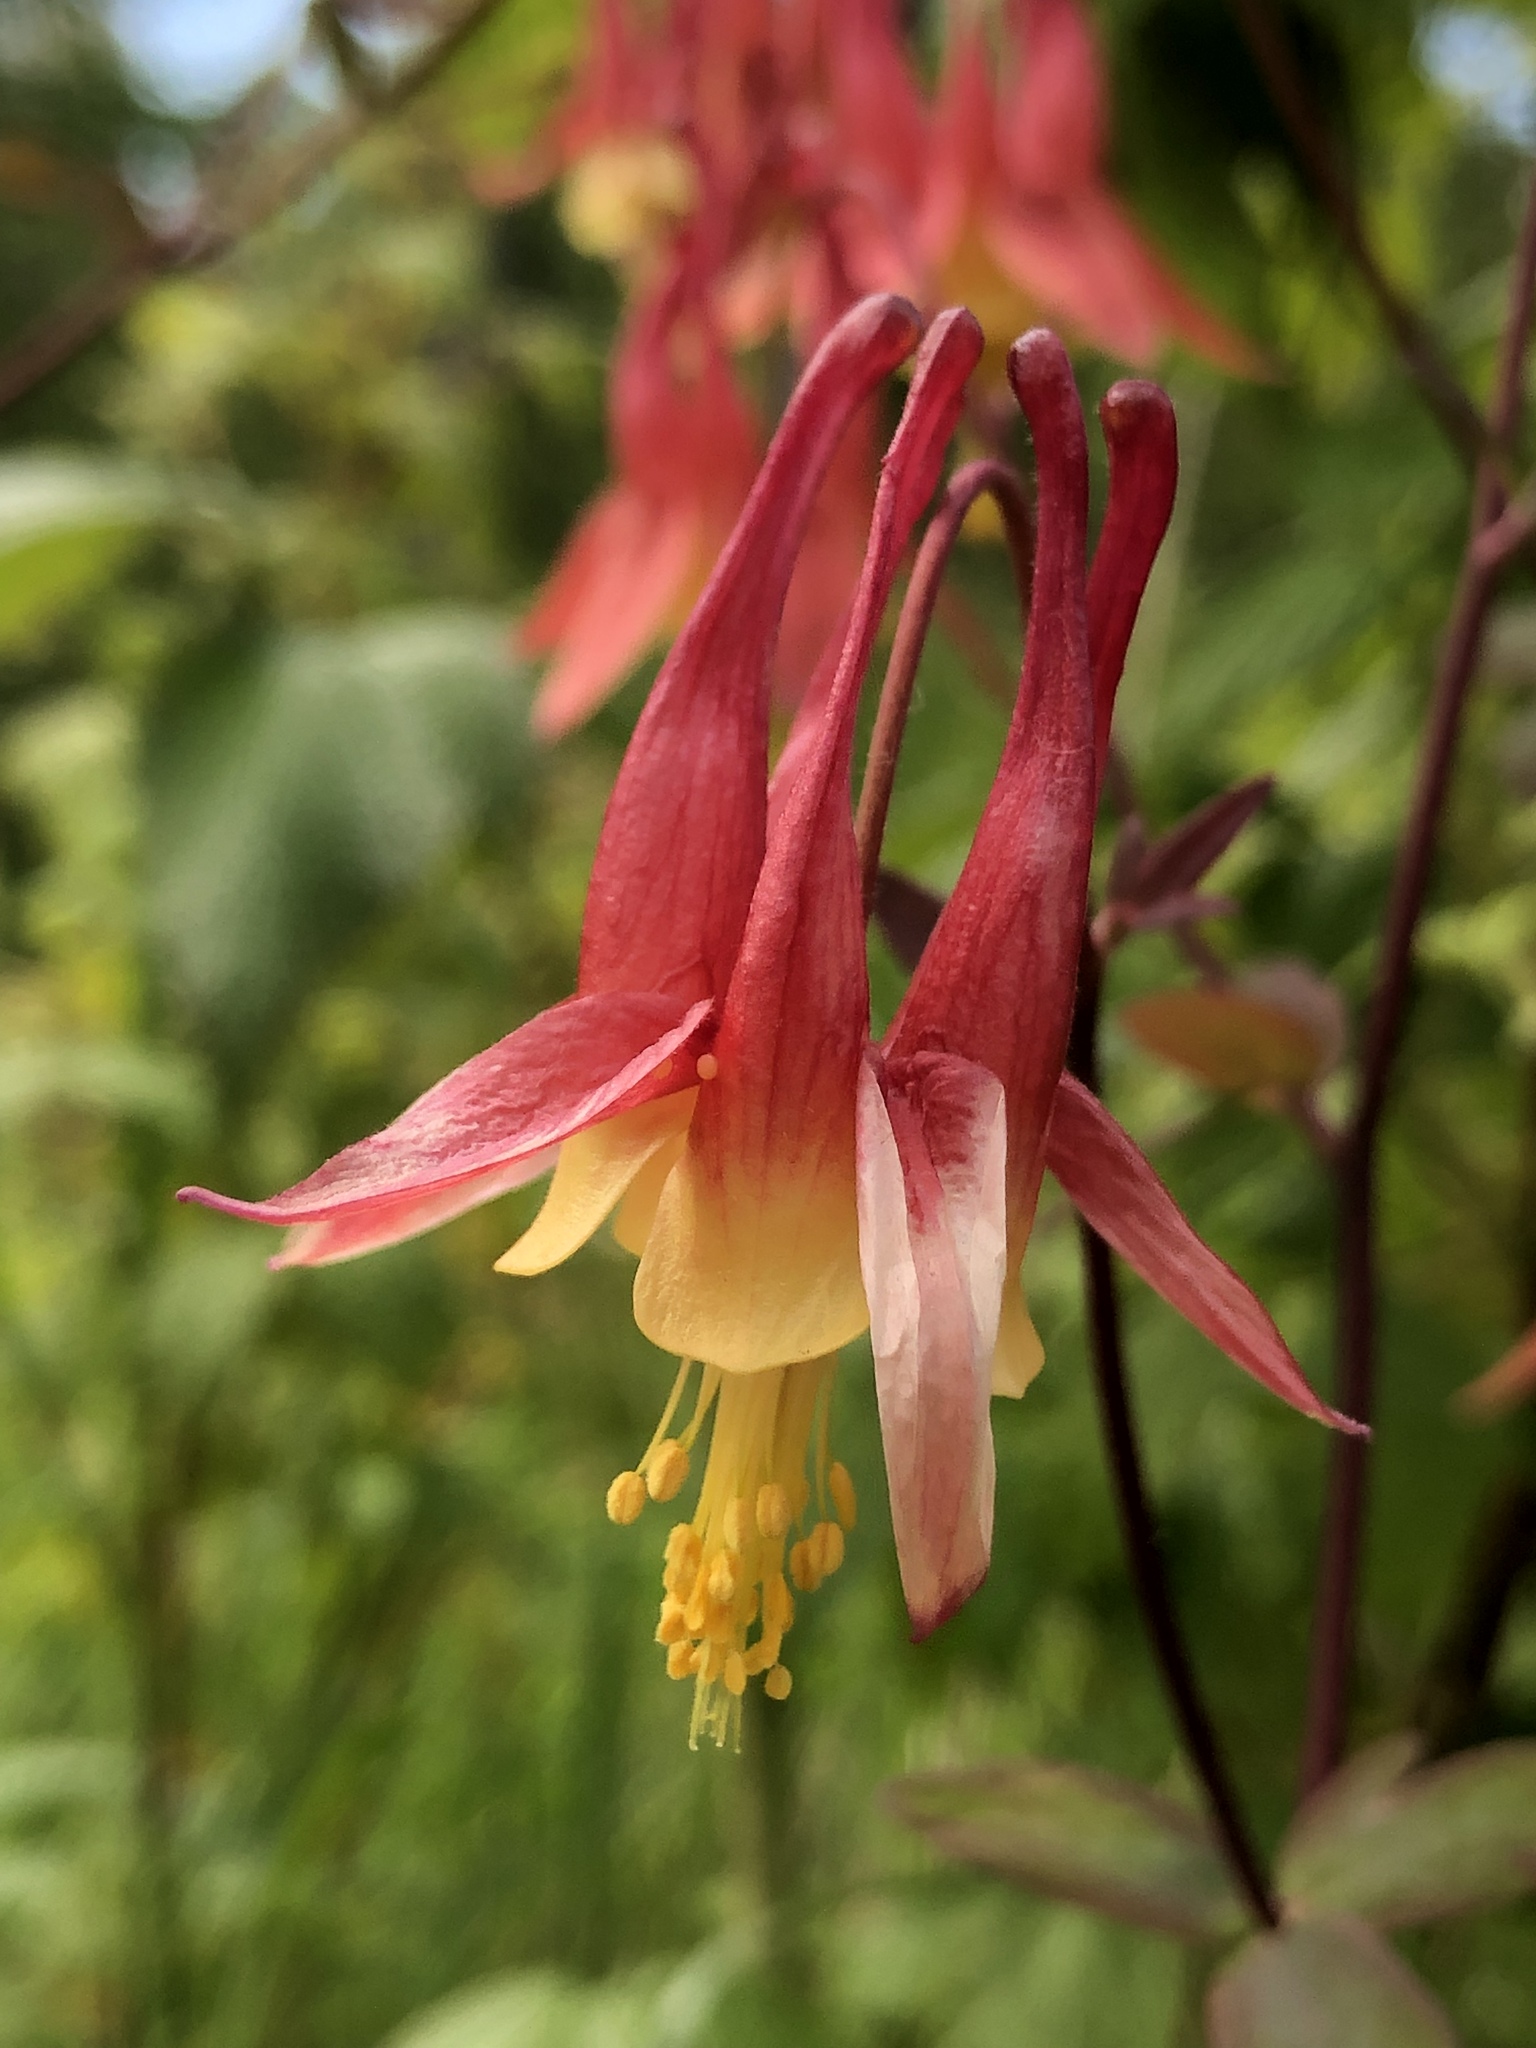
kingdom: Plantae
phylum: Tracheophyta
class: Magnoliopsida
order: Ranunculales
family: Ranunculaceae
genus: Aquilegia
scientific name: Aquilegia canadensis
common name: American columbine
